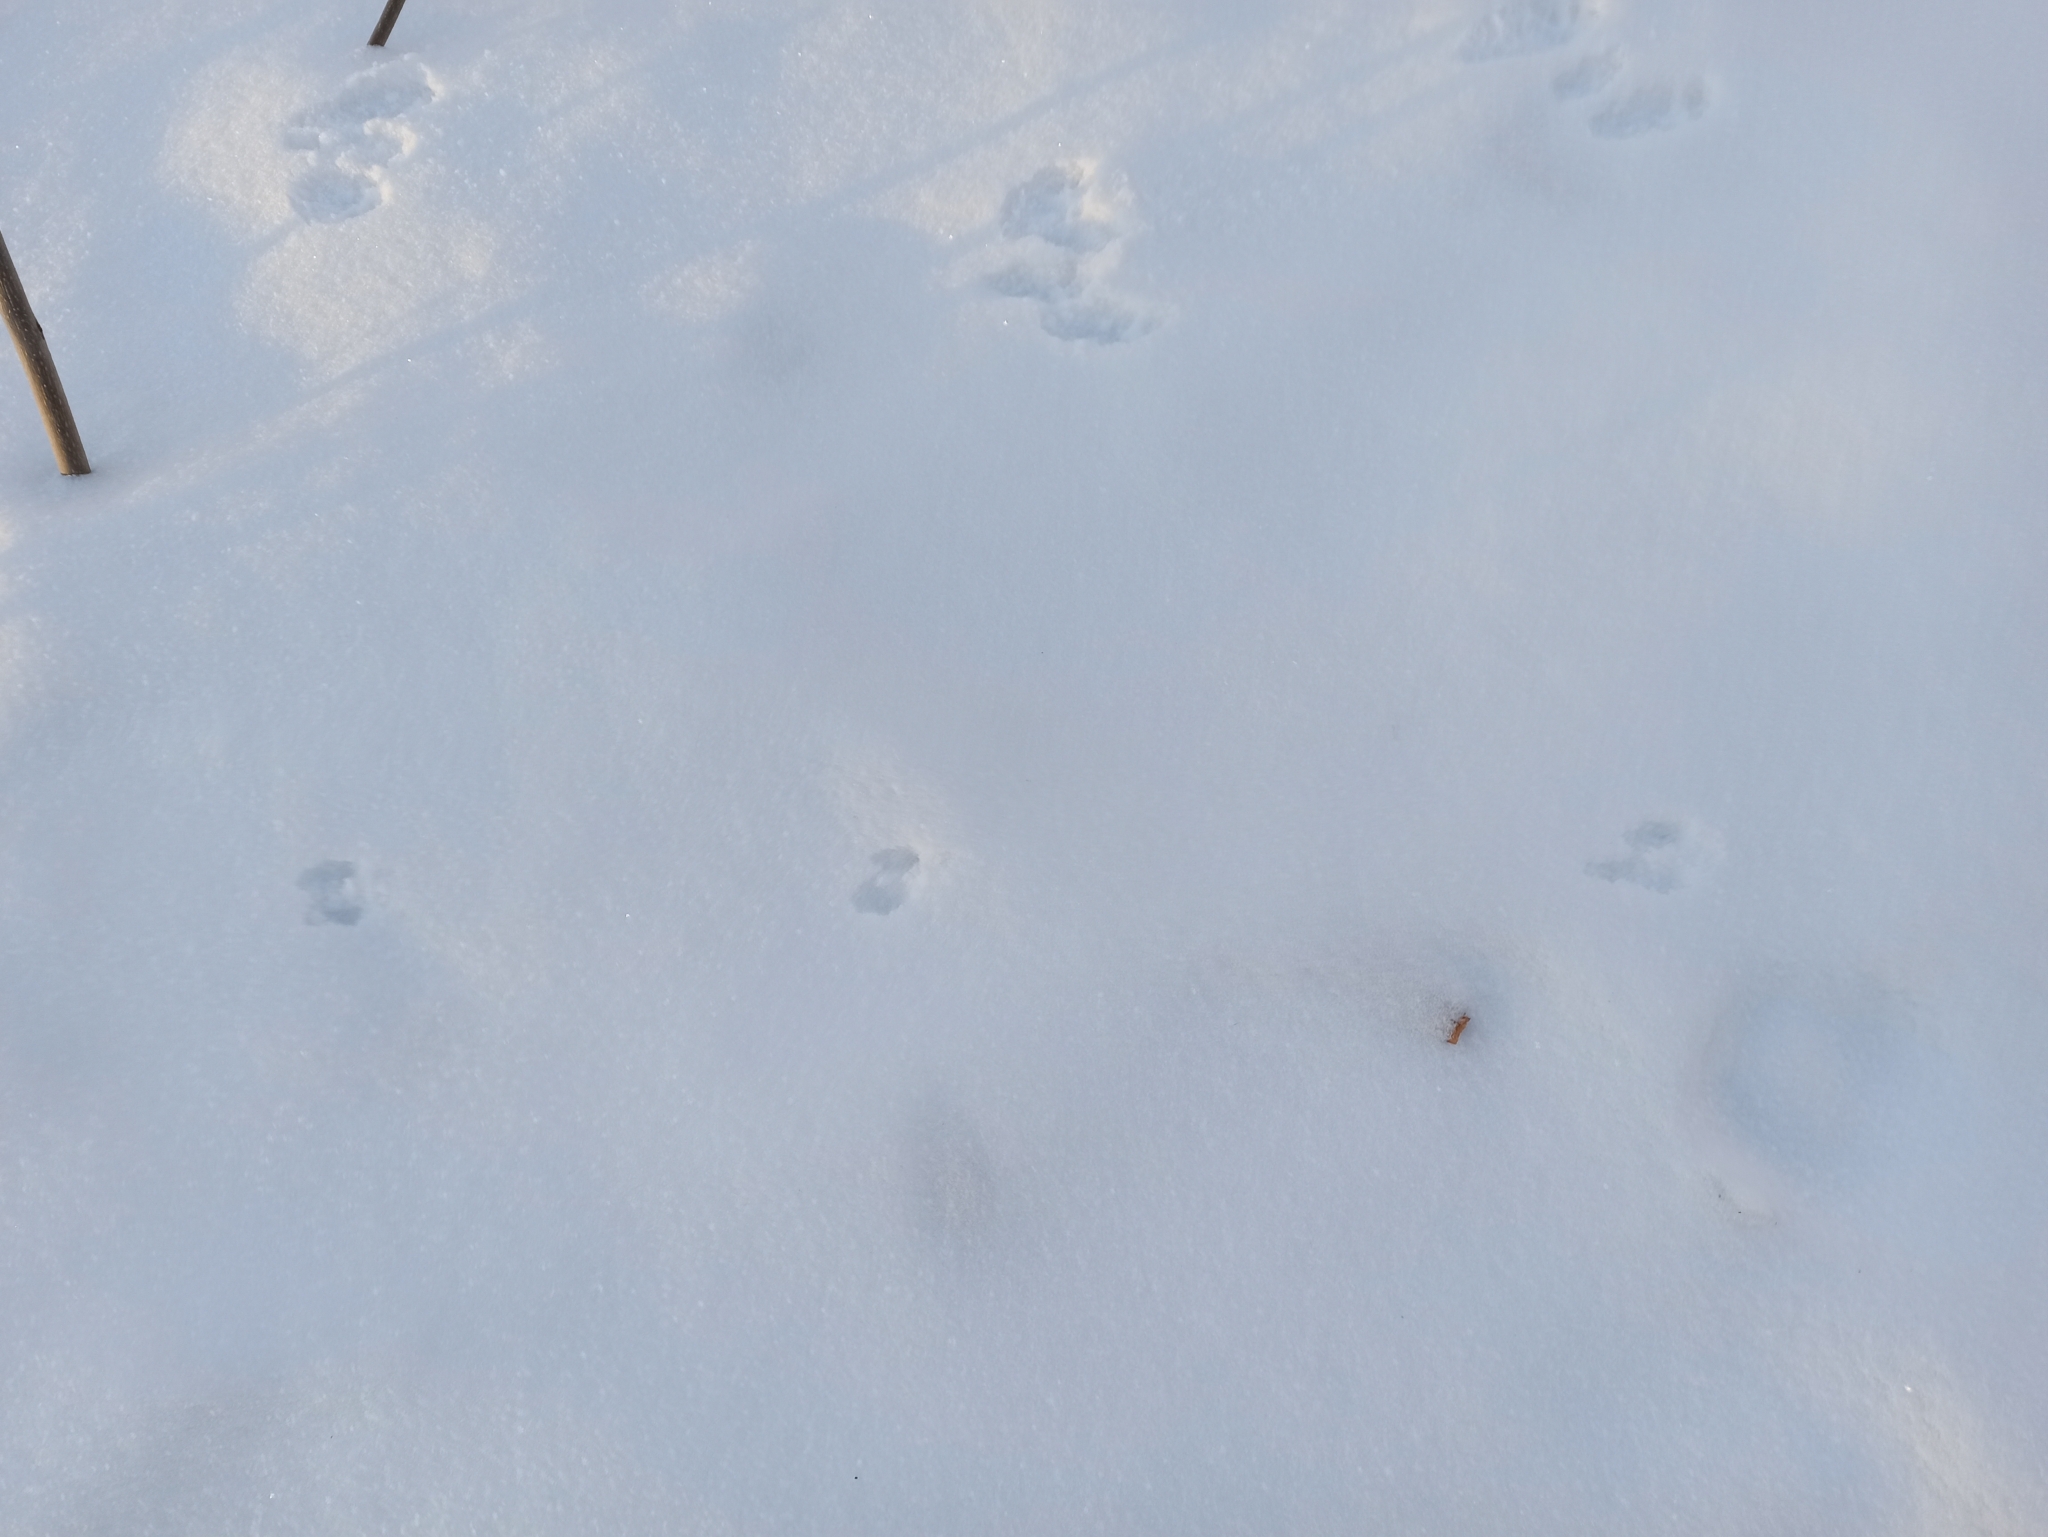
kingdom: Animalia
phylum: Chordata
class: Mammalia
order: Carnivora
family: Mustelidae
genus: Mustela
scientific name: Mustela nivalis
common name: Least weasel
